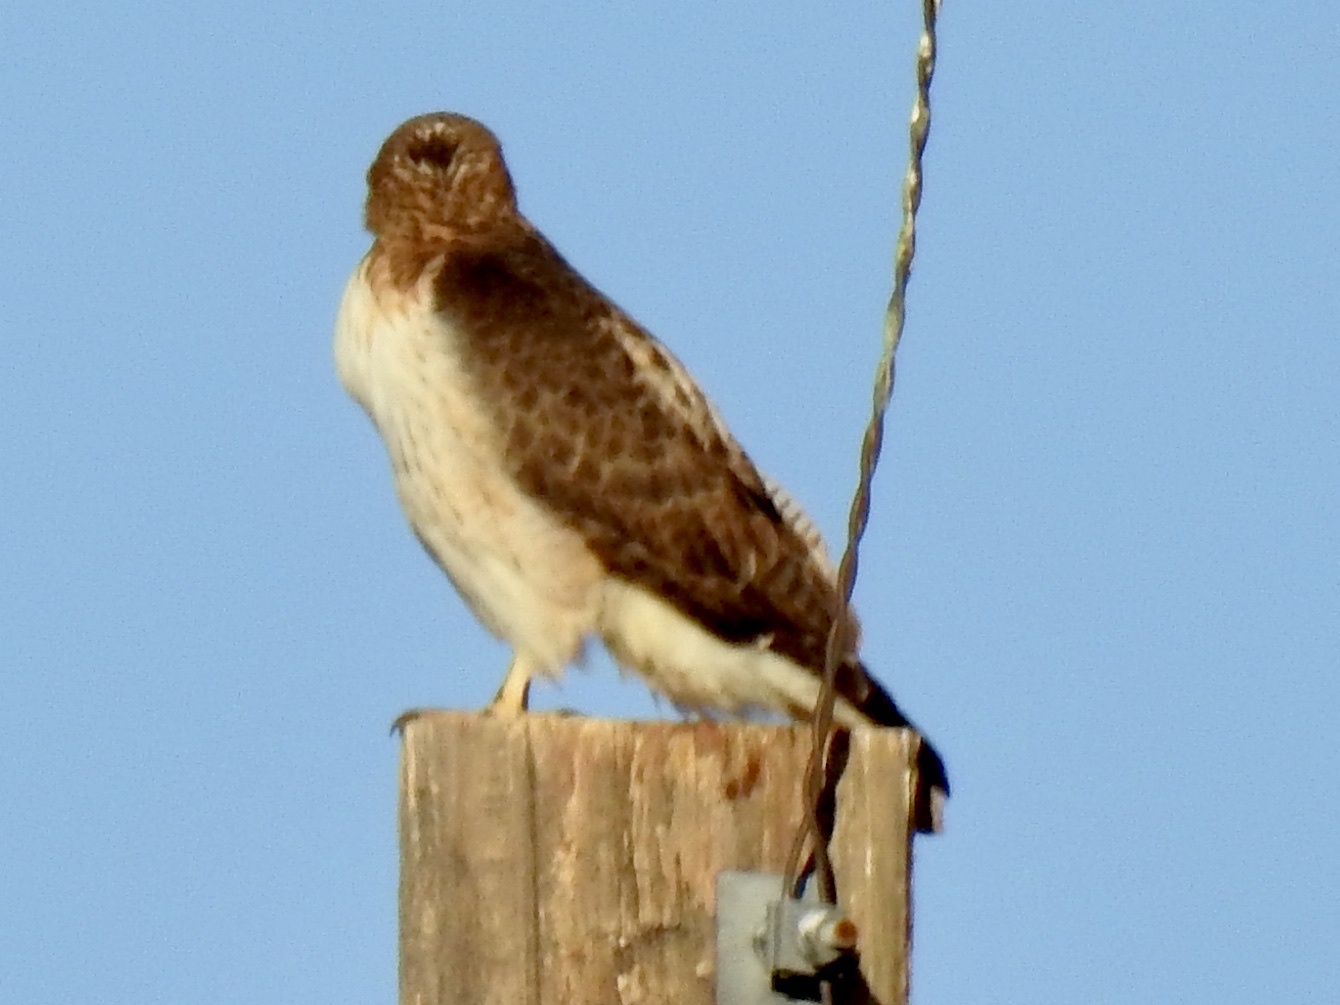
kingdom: Animalia
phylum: Chordata
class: Aves
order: Accipitriformes
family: Accipitridae
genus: Buteo
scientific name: Buteo jamaicensis
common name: Red-tailed hawk
